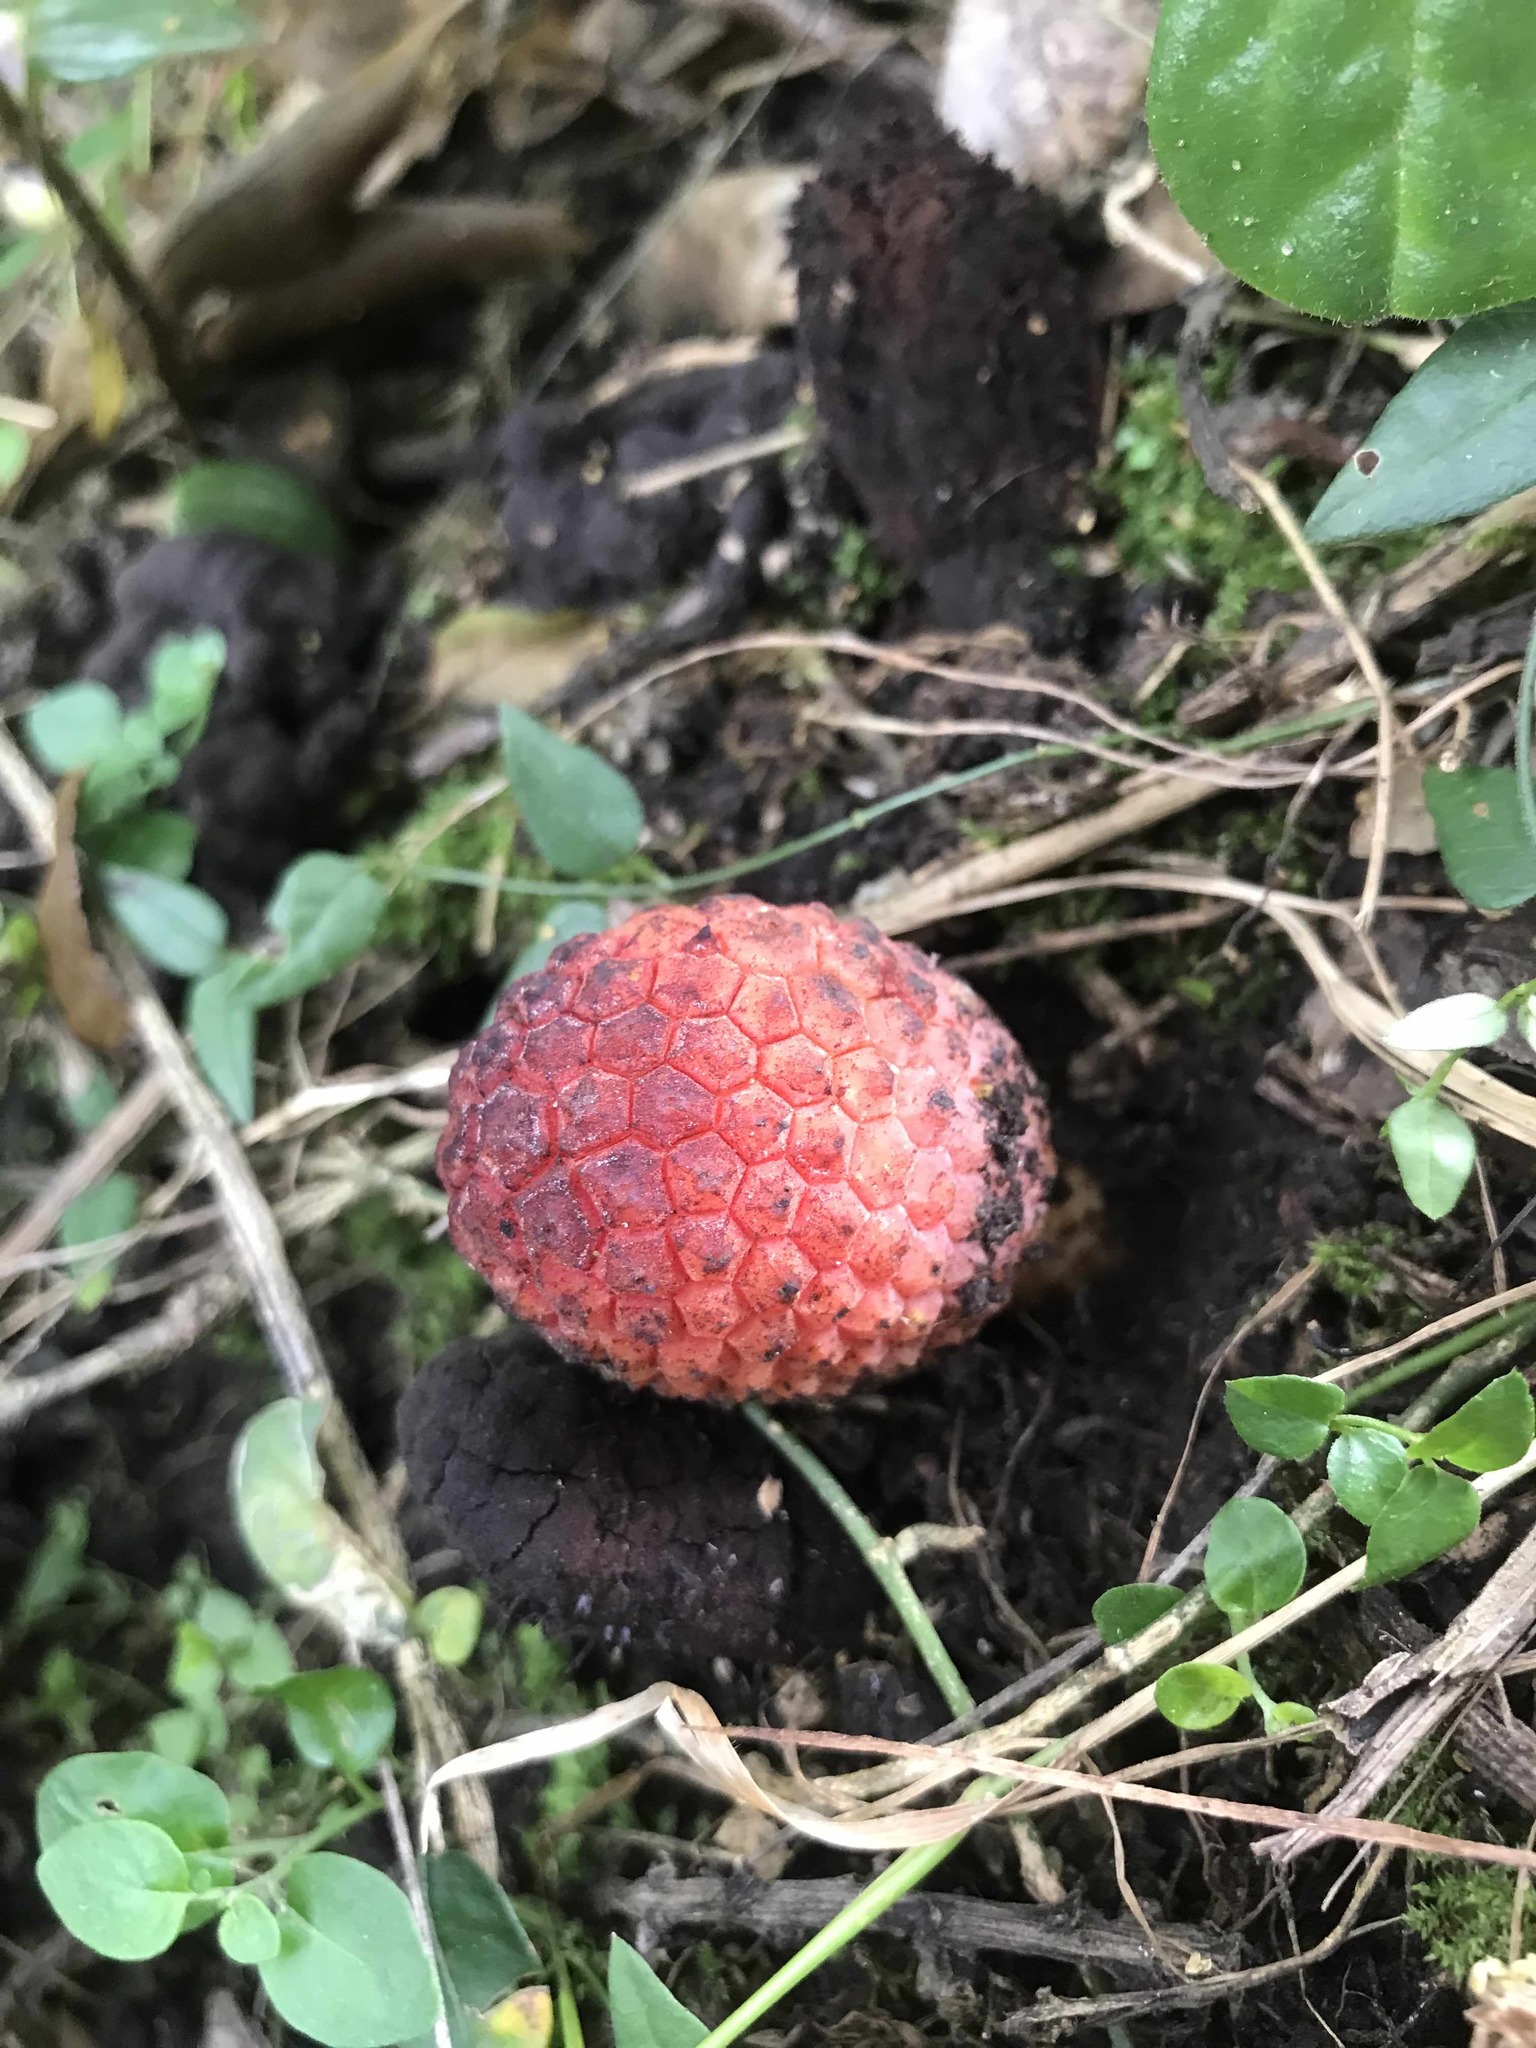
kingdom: Plantae
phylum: Tracheophyta
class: Magnoliopsida
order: Santalales
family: Balanophoraceae
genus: Corynaea
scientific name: Corynaea crassa
